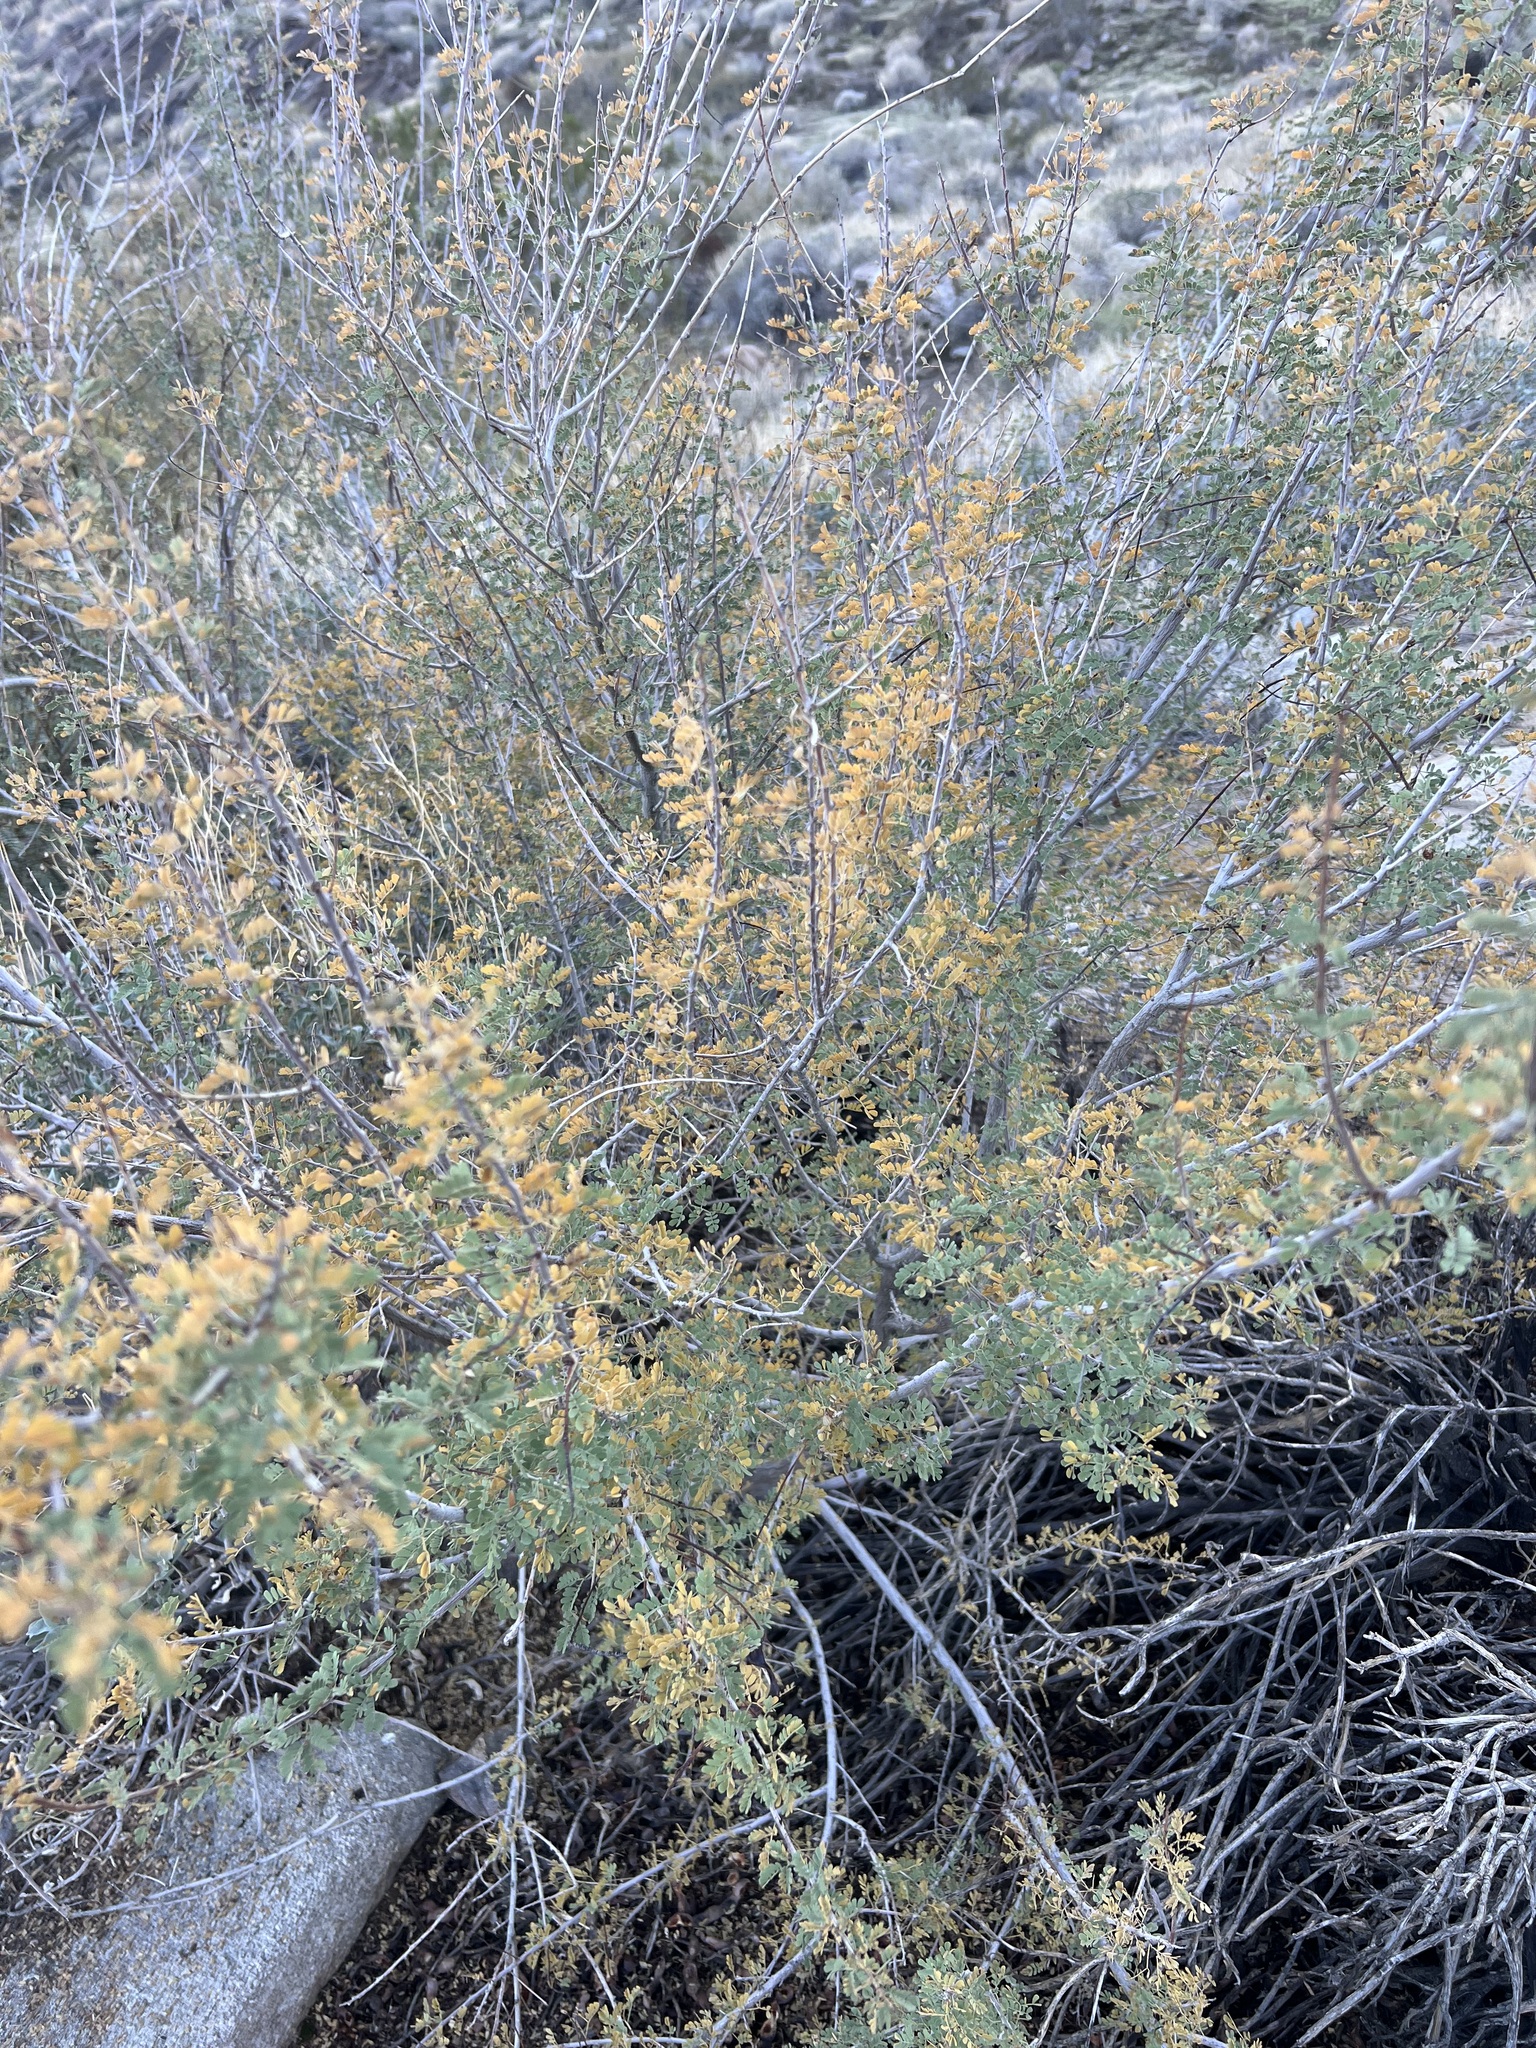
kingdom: Plantae
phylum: Tracheophyta
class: Magnoliopsida
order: Fabales
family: Fabaceae
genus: Senegalia
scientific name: Senegalia greggii
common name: Texas-mimosa
